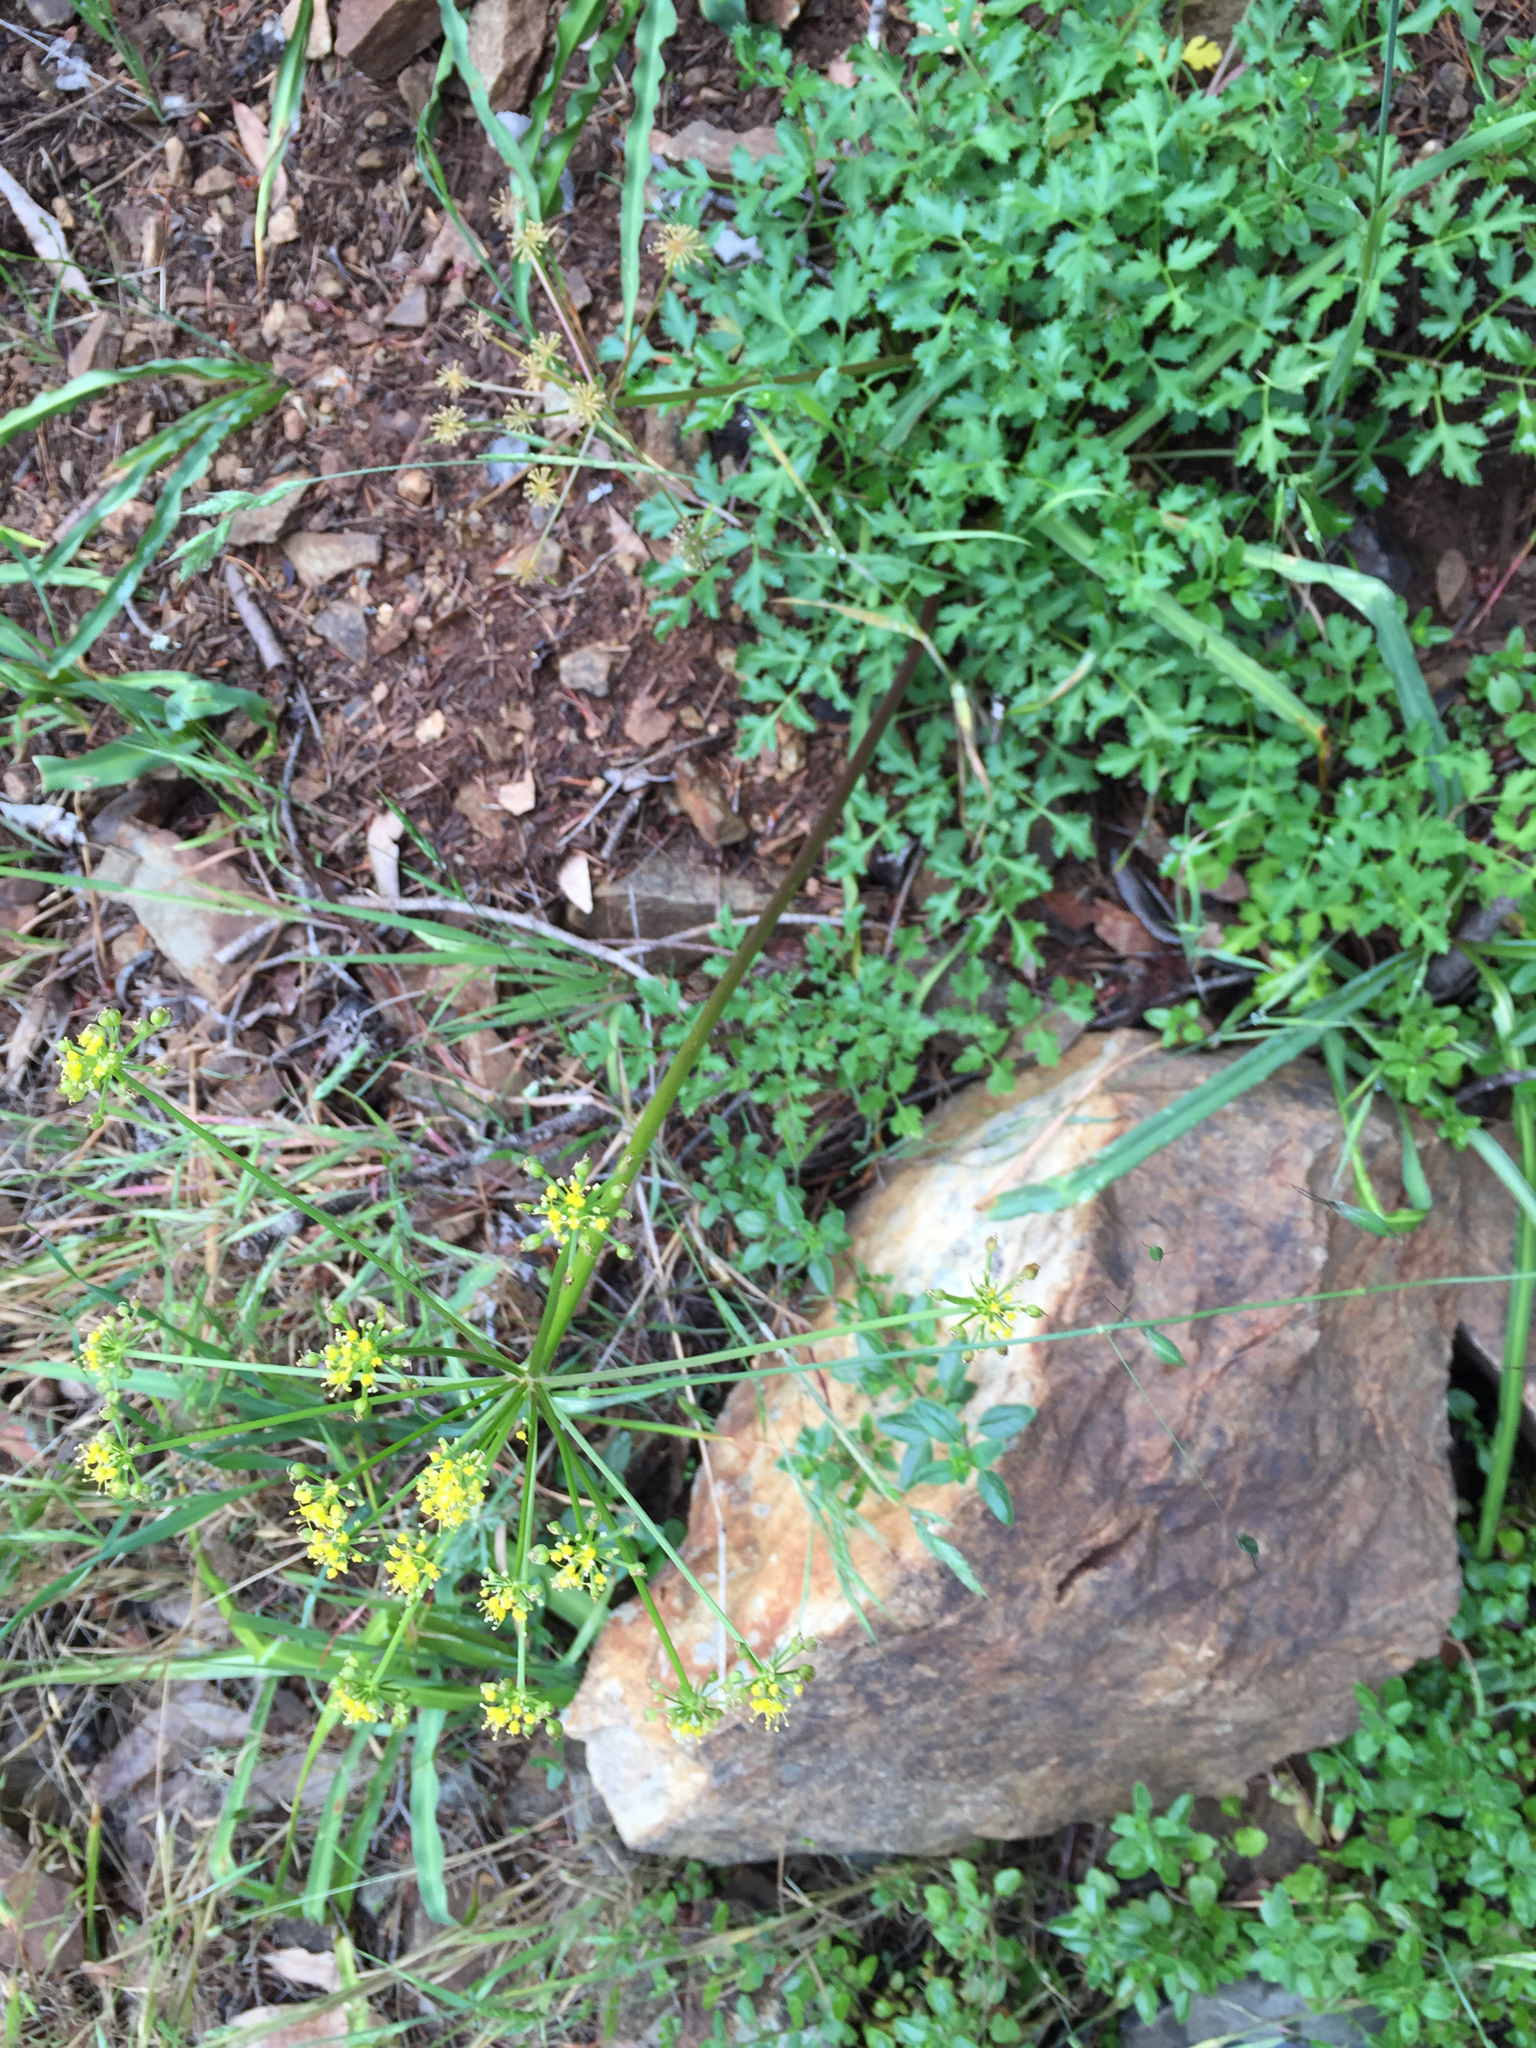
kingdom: Plantae
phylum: Tracheophyta
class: Magnoliopsida
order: Apiales
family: Apiaceae
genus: Tauschia
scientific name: Tauschia kelloggii
